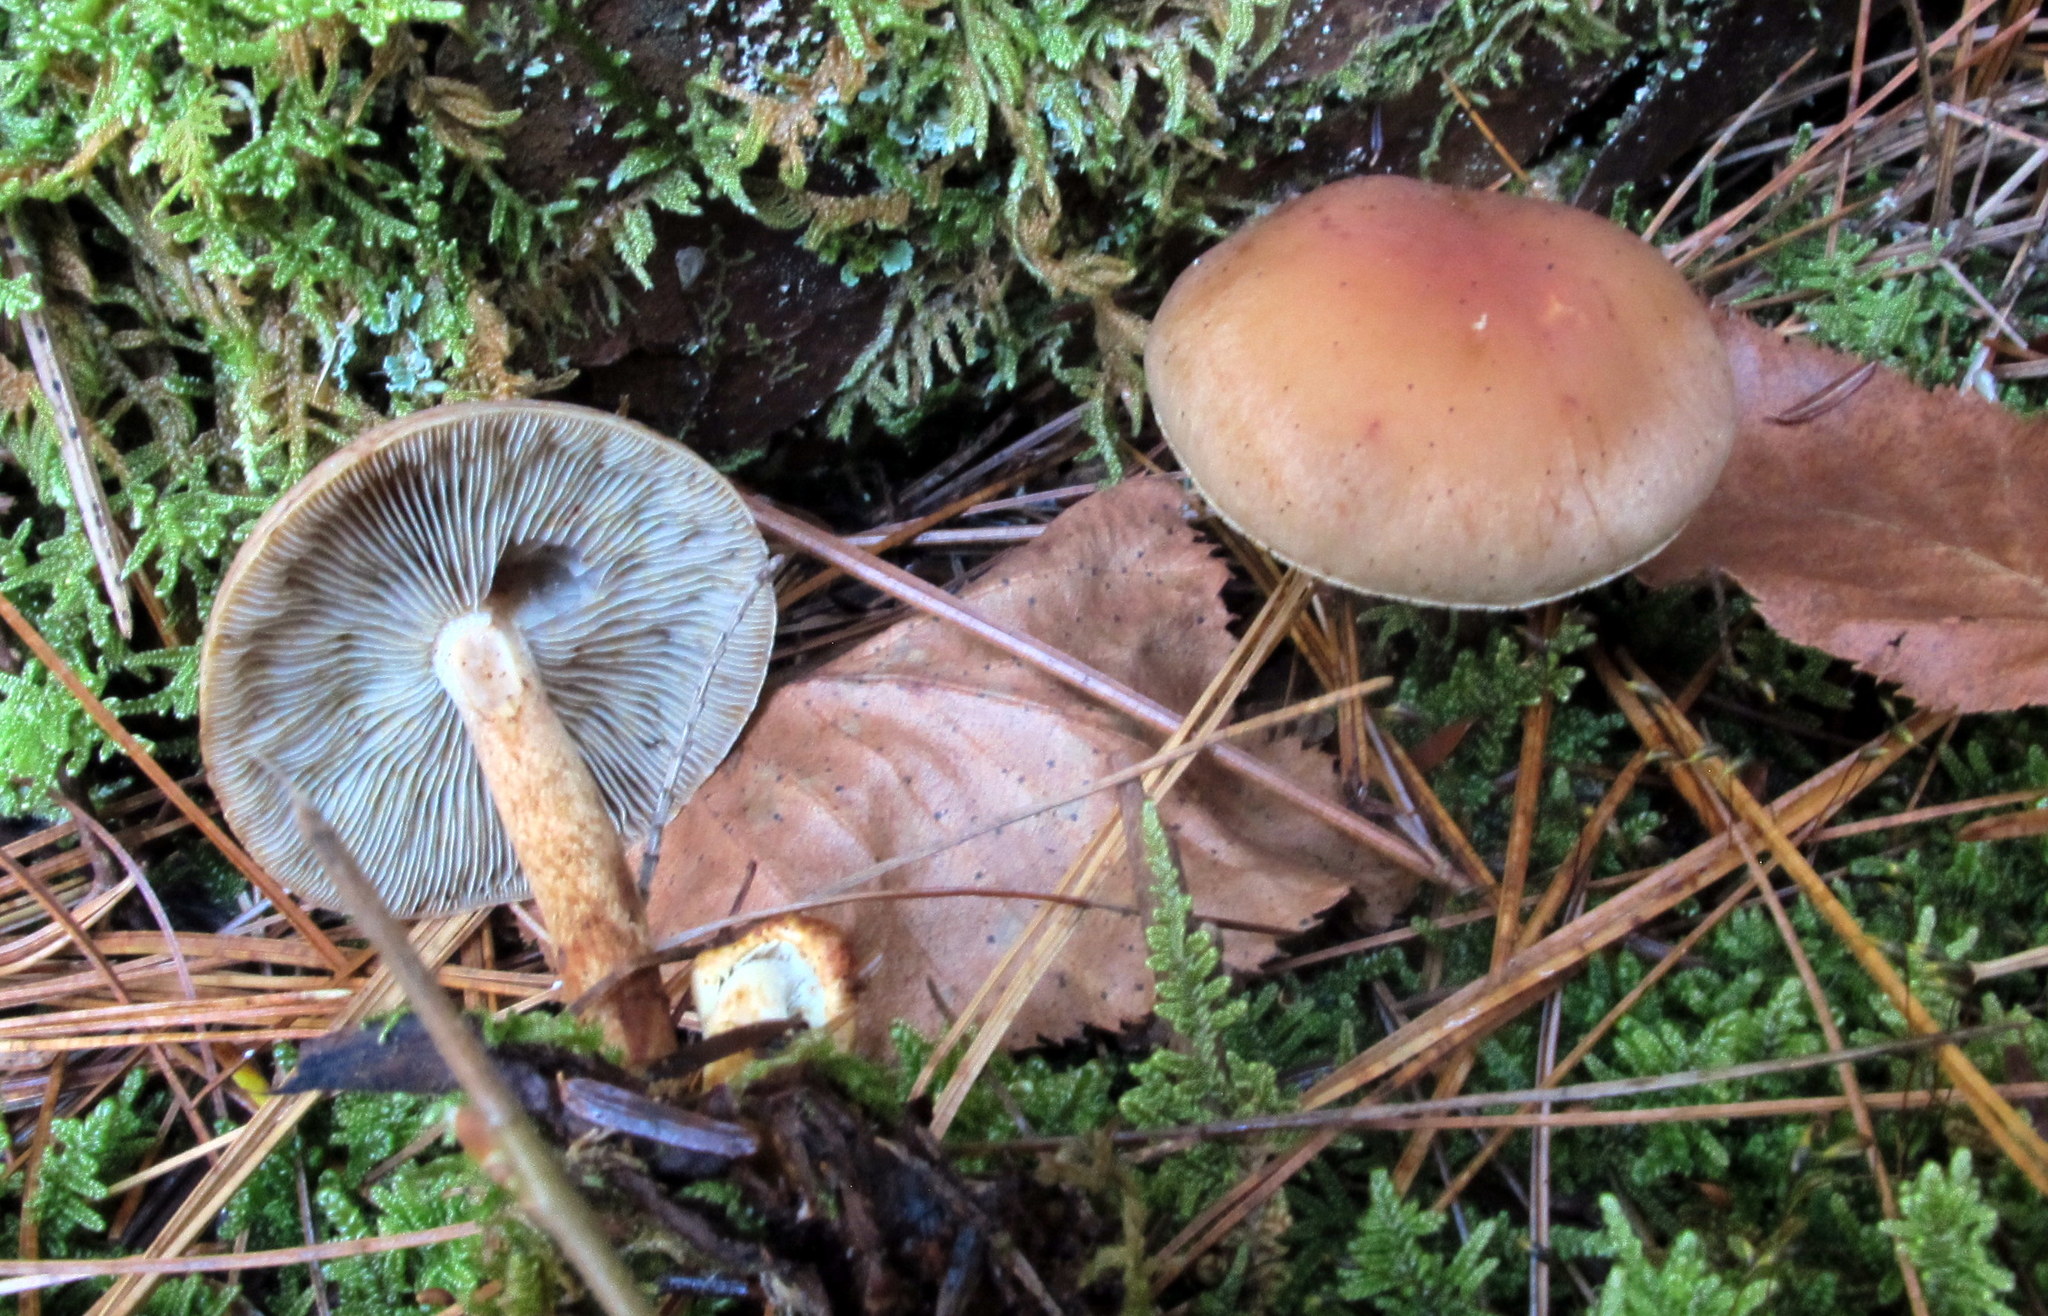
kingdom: Fungi
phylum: Basidiomycota
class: Agaricomycetes
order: Agaricales
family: Strophariaceae
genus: Hypholoma
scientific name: Hypholoma capnoides
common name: Conifer tuft
